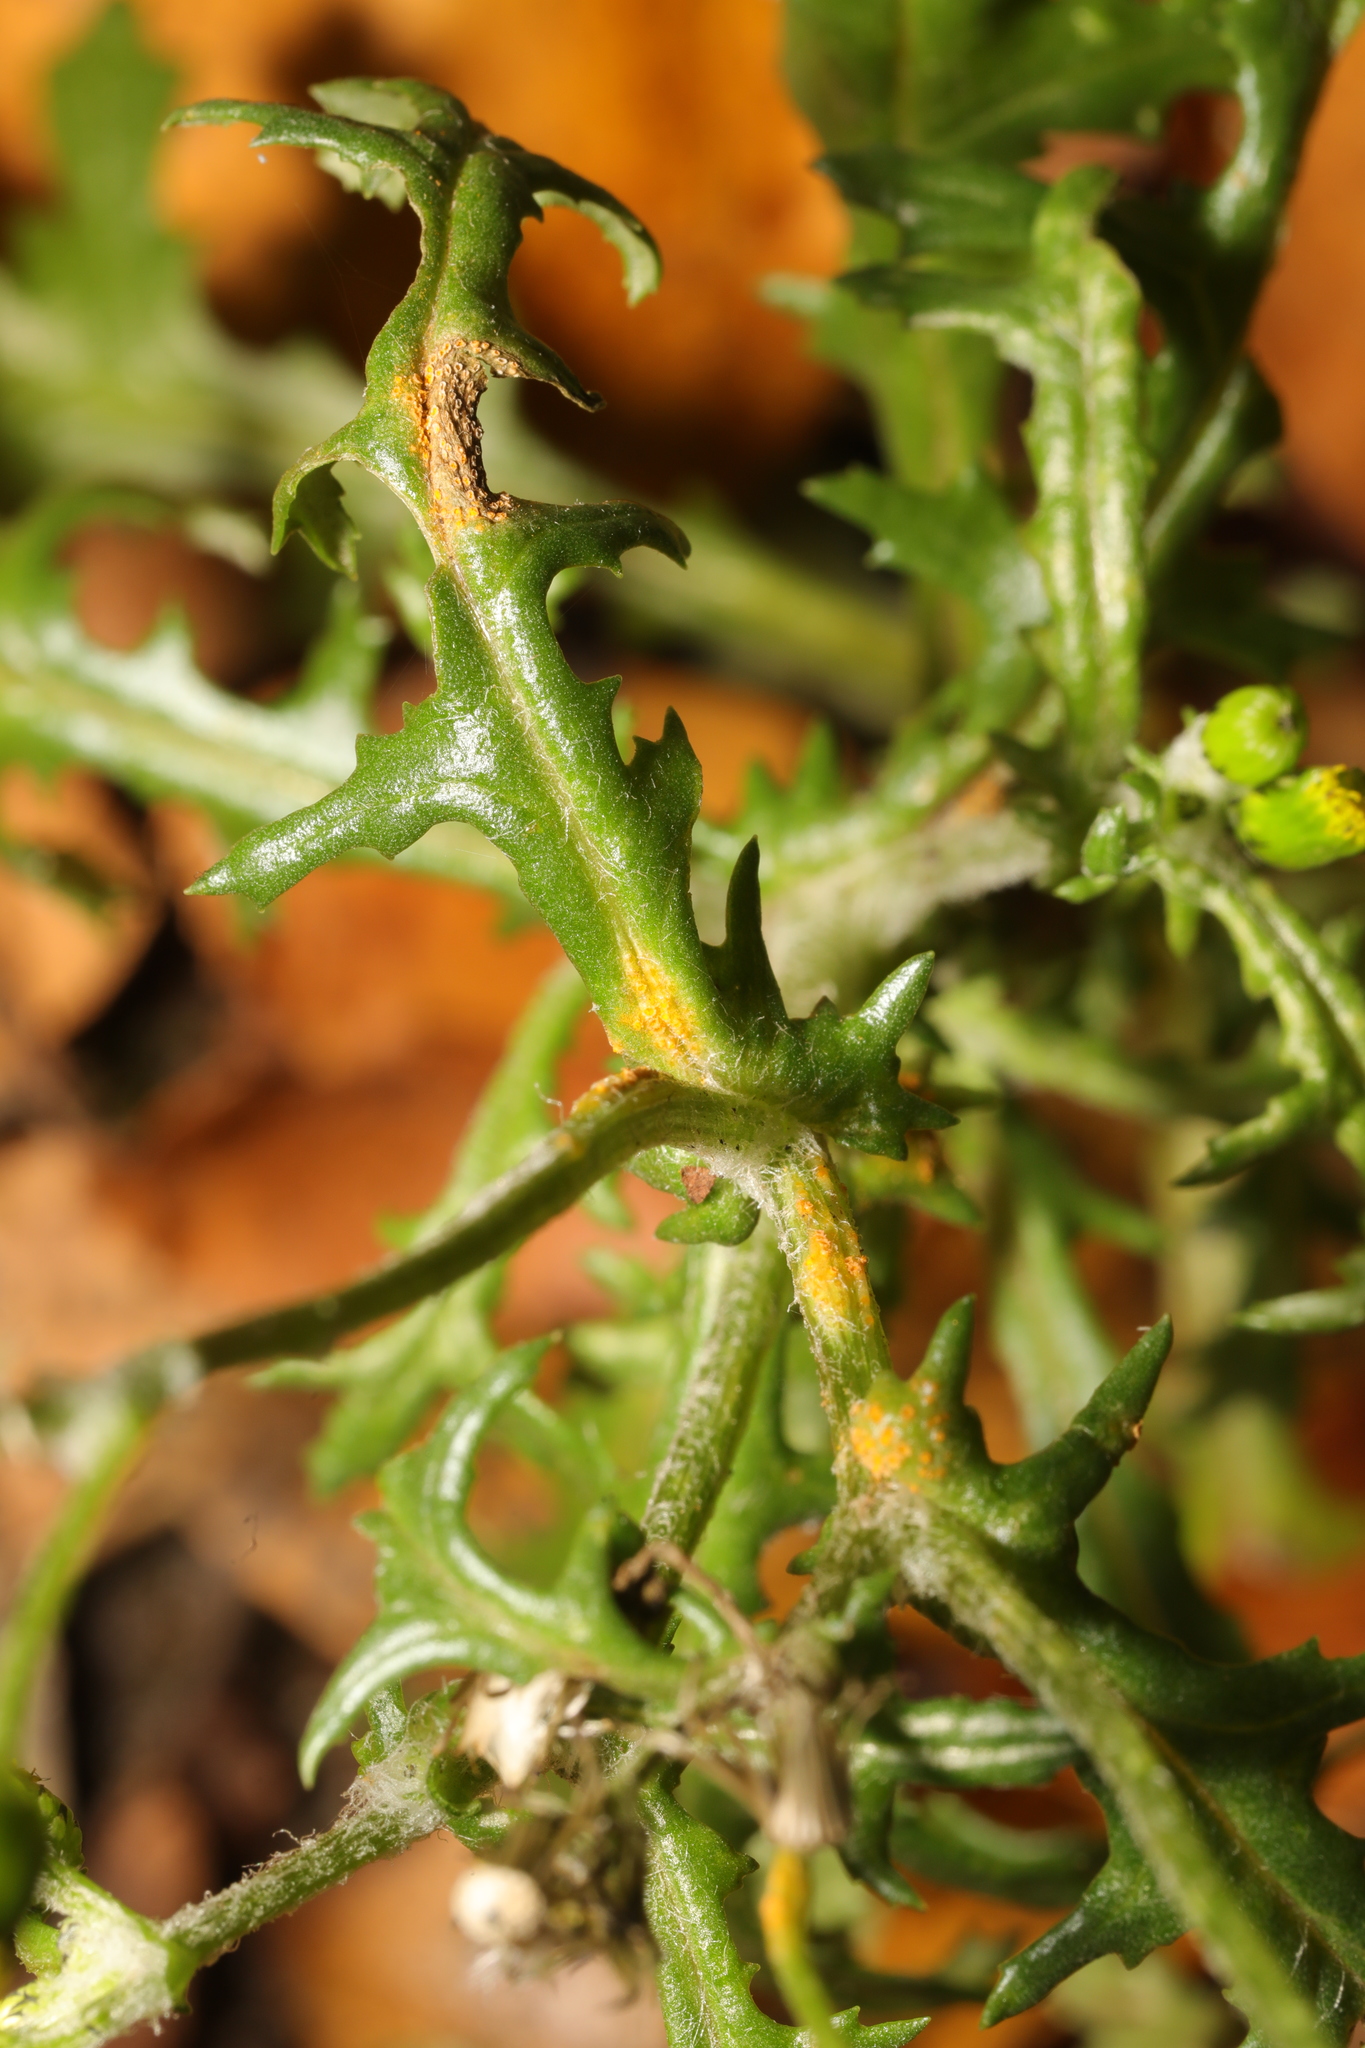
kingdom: Fungi
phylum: Basidiomycota
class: Pucciniomycetes
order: Pucciniales
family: Pucciniaceae
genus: Puccinia
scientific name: Puccinia lagenophorae
